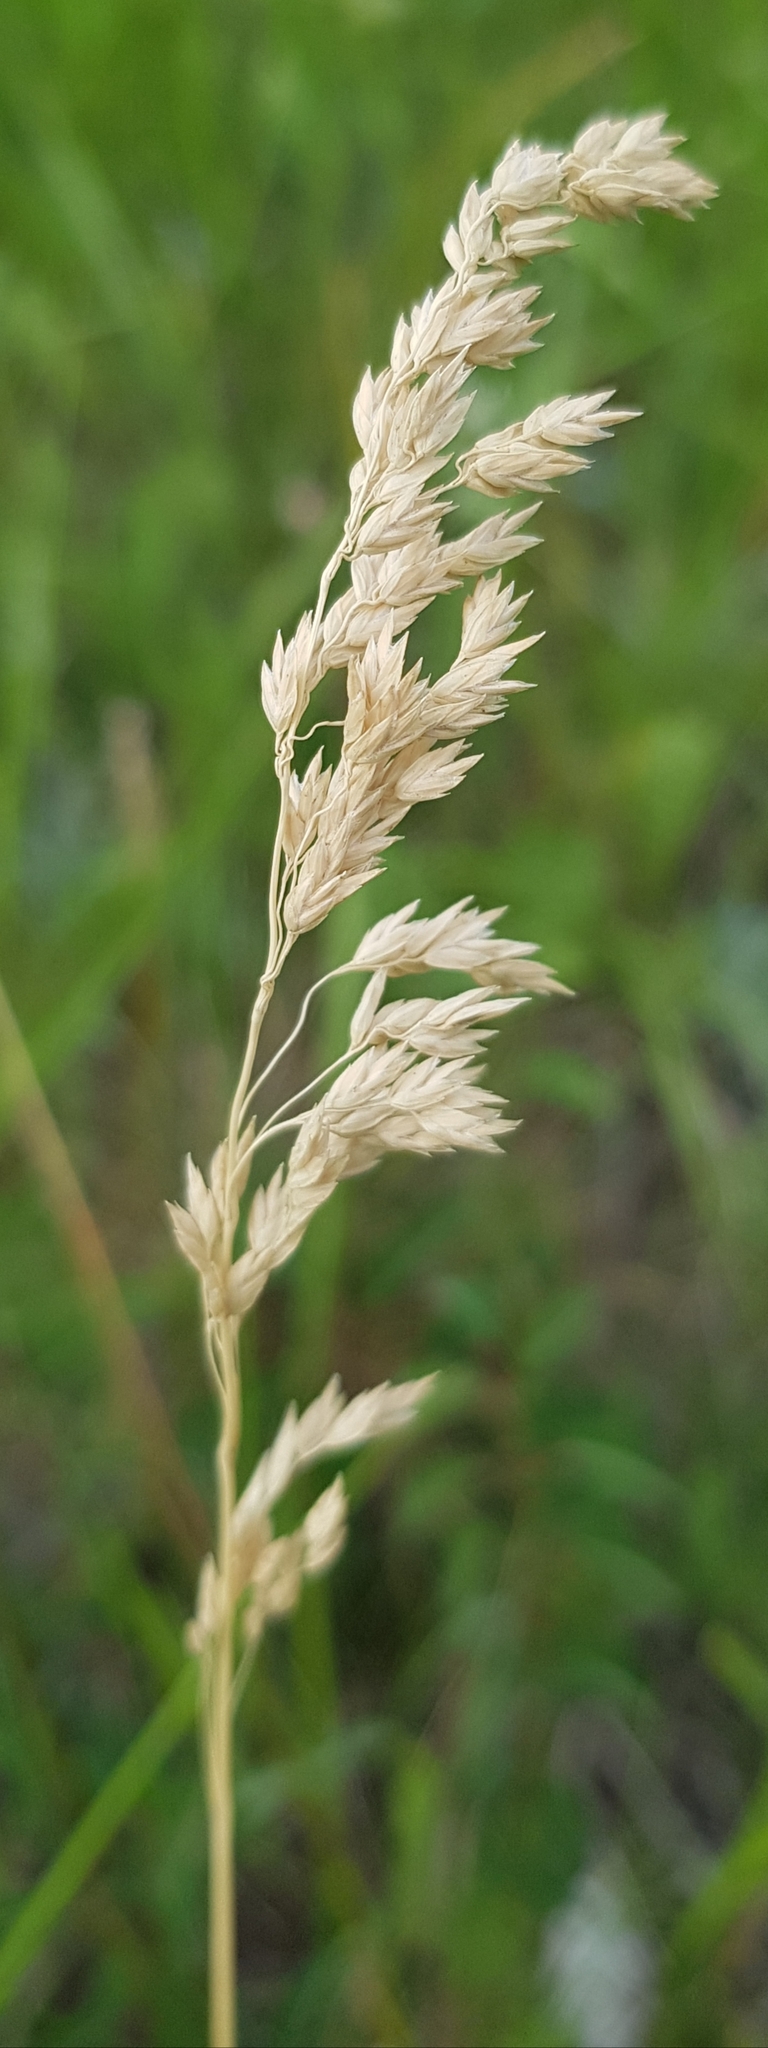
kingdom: Plantae
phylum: Tracheophyta
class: Liliopsida
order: Poales
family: Poaceae
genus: Calamagrostis
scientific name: Calamagrostis epigejos
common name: Wood small-reed
